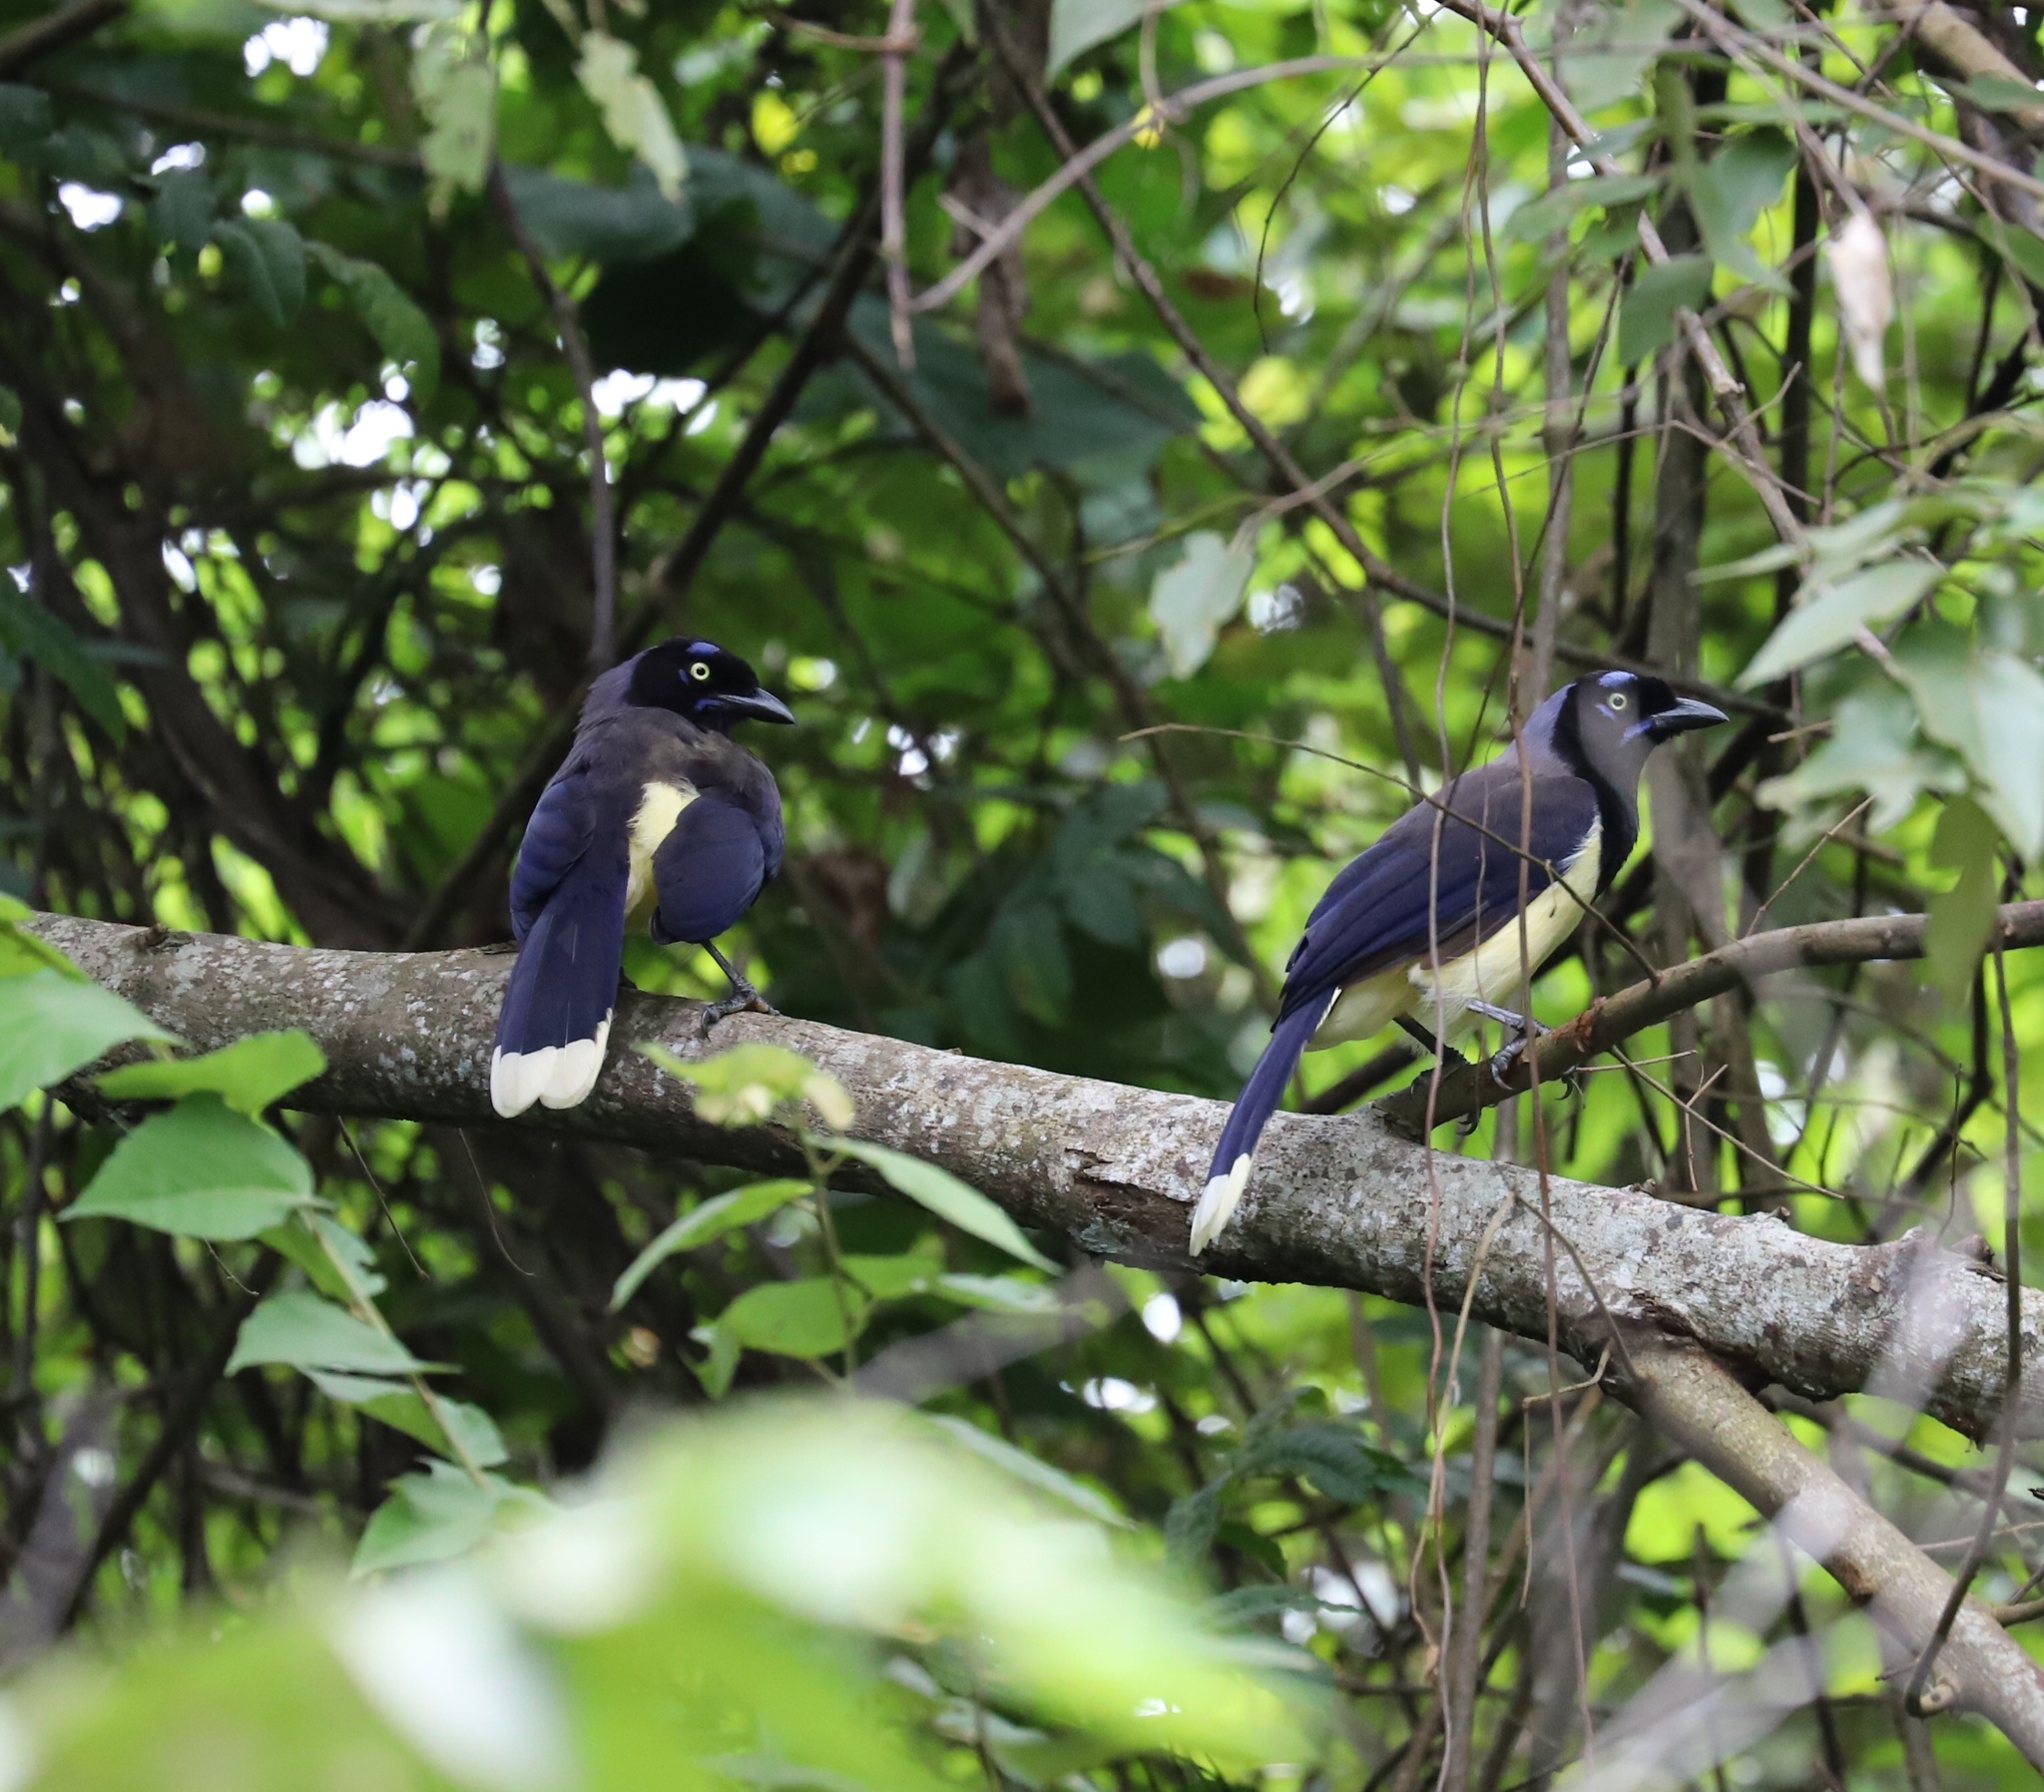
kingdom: Animalia
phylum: Chordata
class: Aves
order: Passeriformes
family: Corvidae
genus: Cyanocorax
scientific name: Cyanocorax affinis
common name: Black-chested jay
